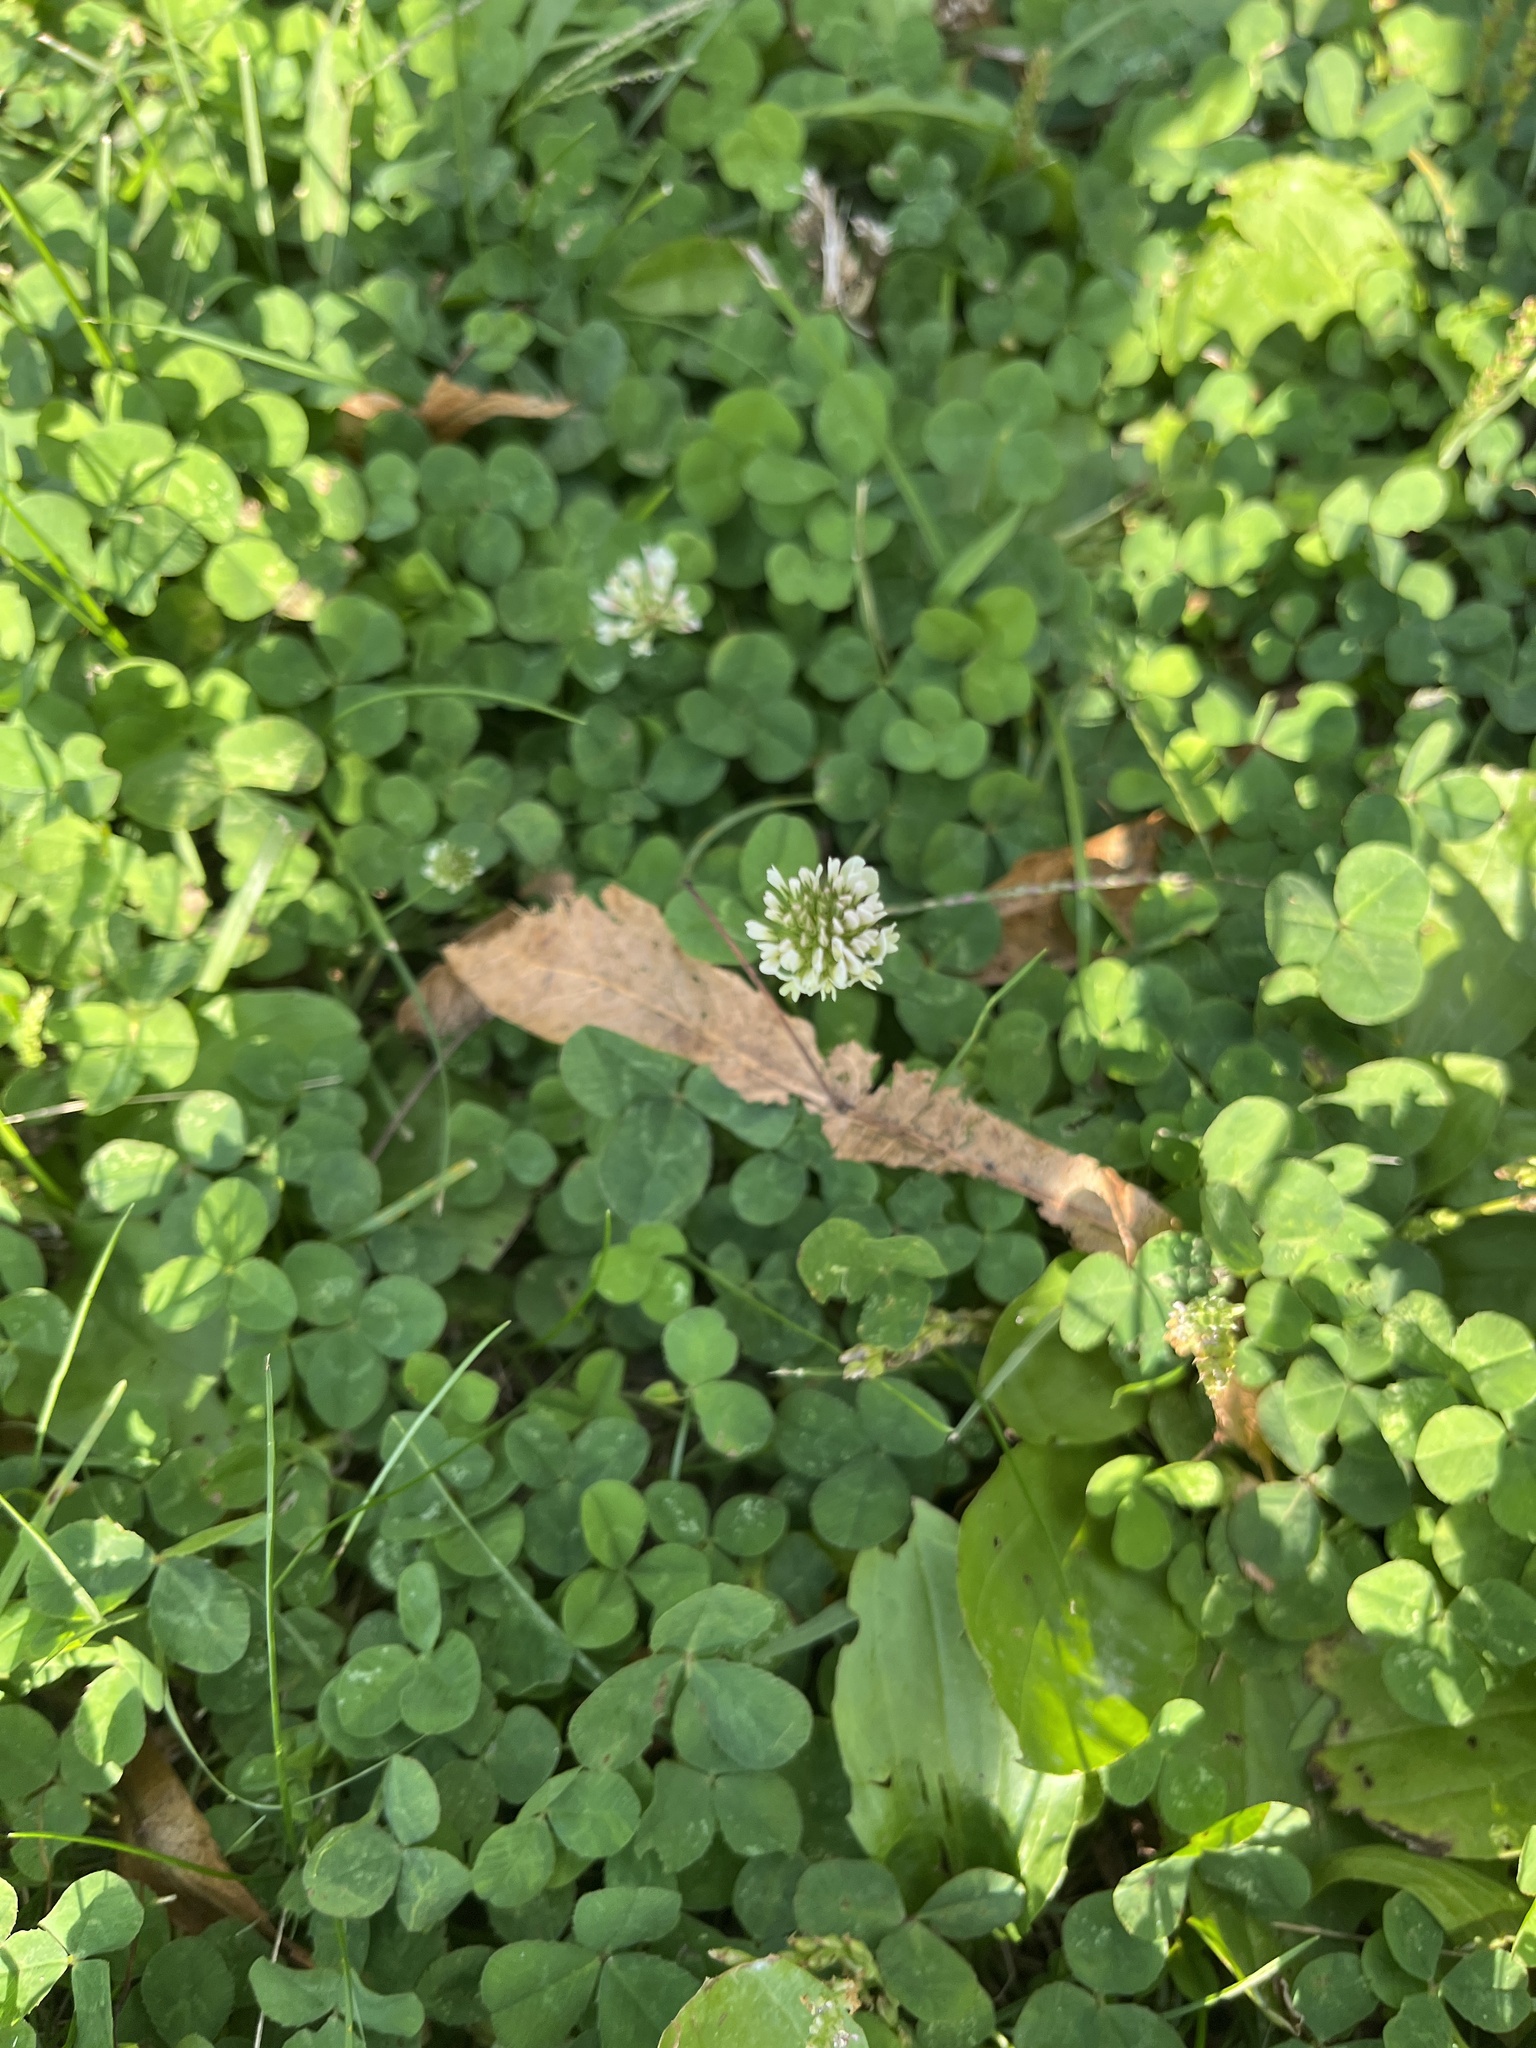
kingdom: Plantae
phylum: Tracheophyta
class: Magnoliopsida
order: Fabales
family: Fabaceae
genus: Trifolium
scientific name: Trifolium repens
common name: White clover
